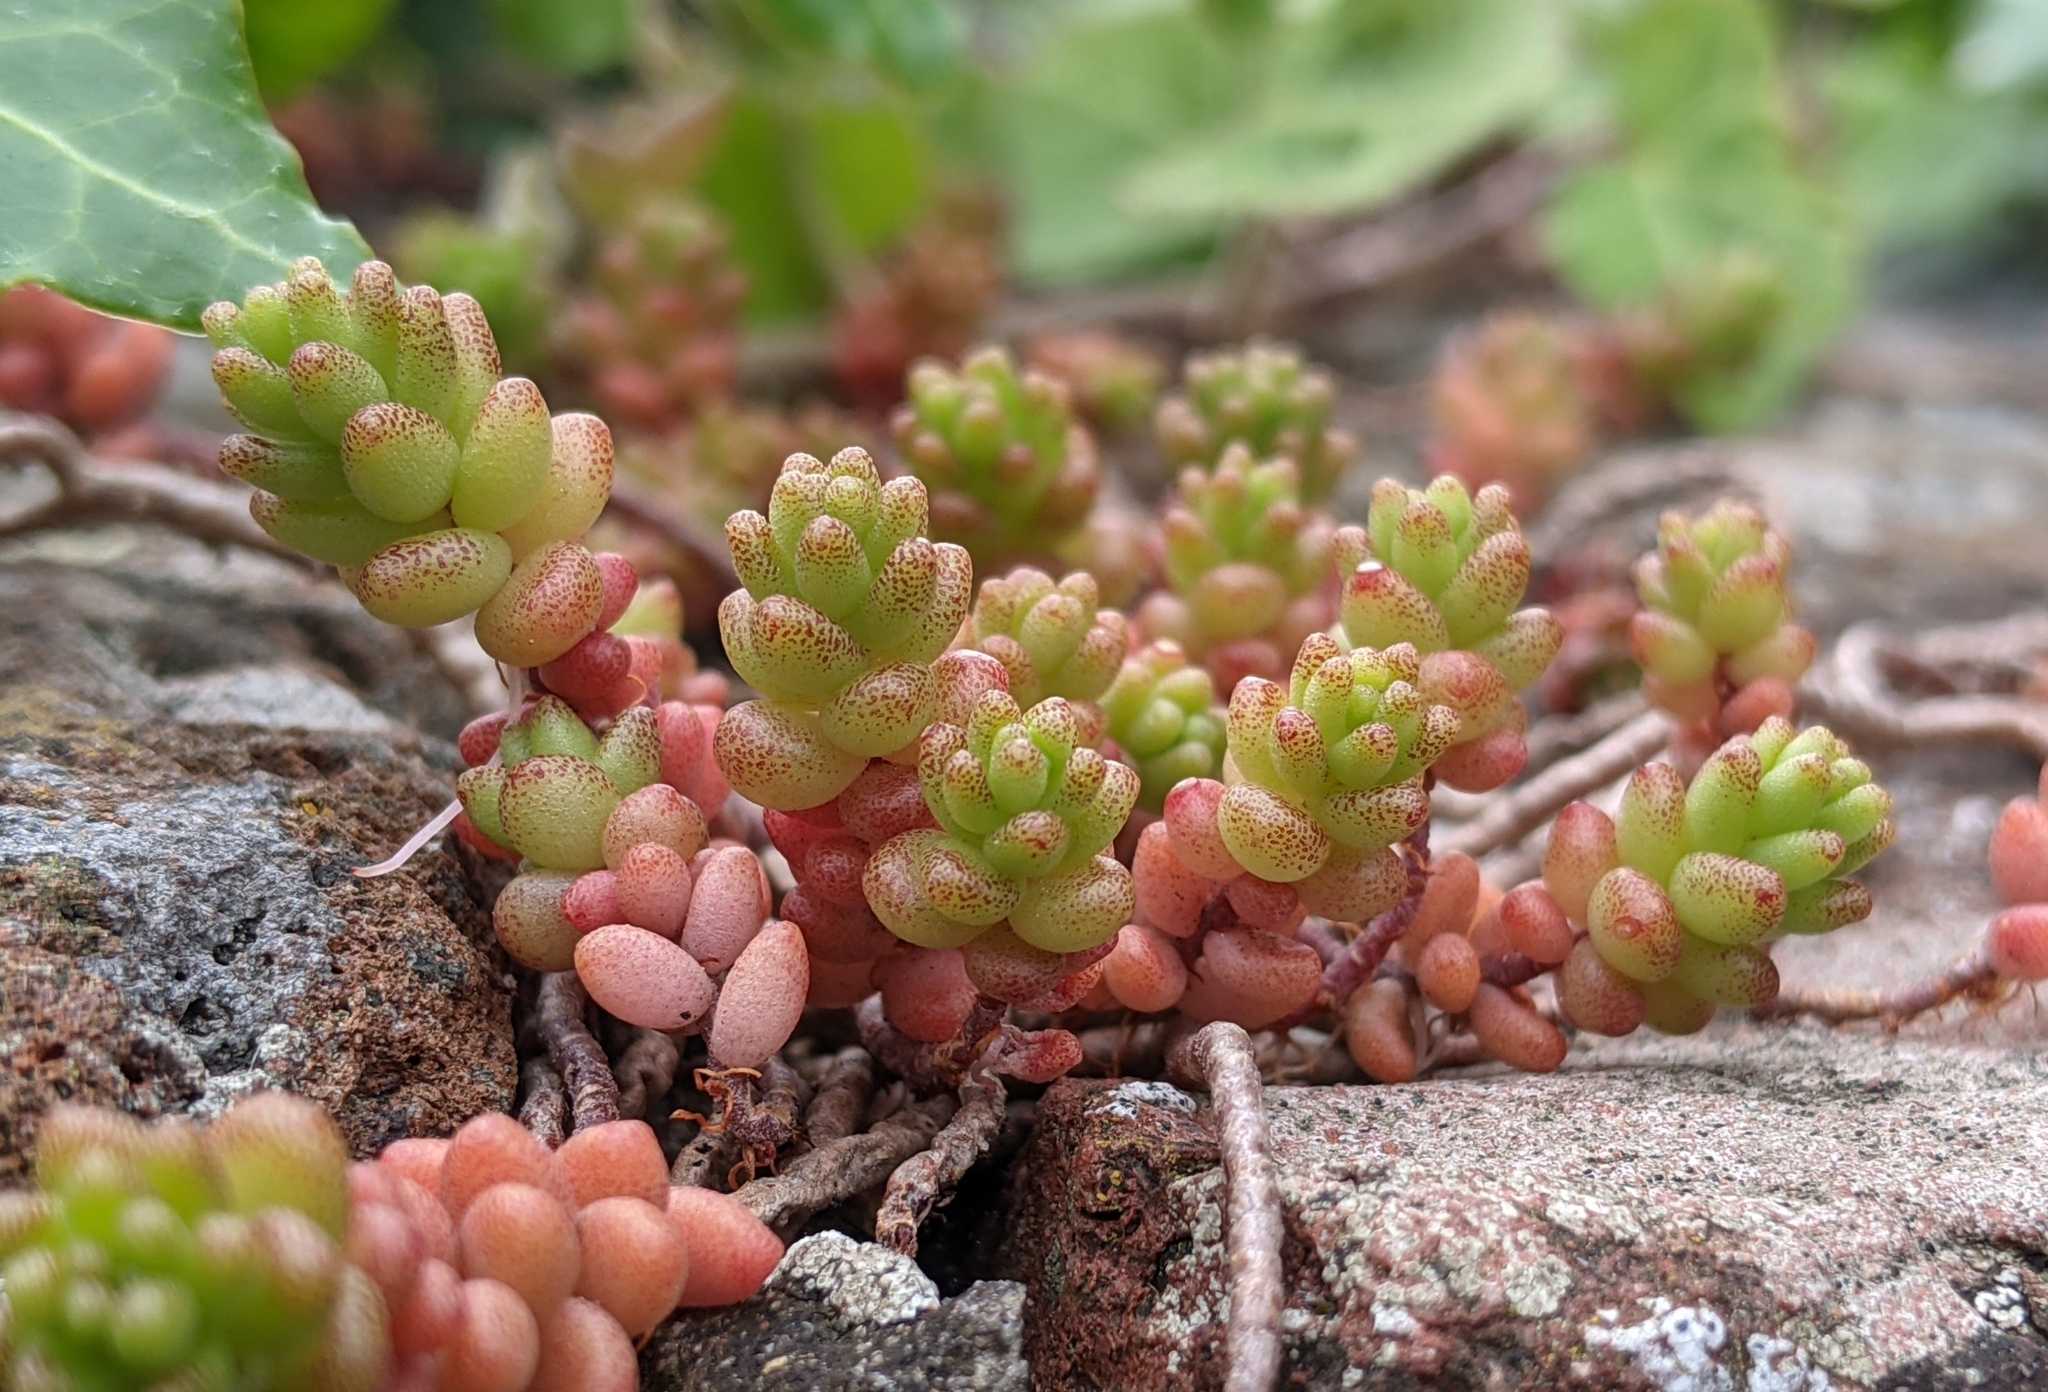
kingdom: Plantae
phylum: Tracheophyta
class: Magnoliopsida
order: Saxifragales
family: Crassulaceae
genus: Sedum
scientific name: Sedum album
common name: White stonecrop
